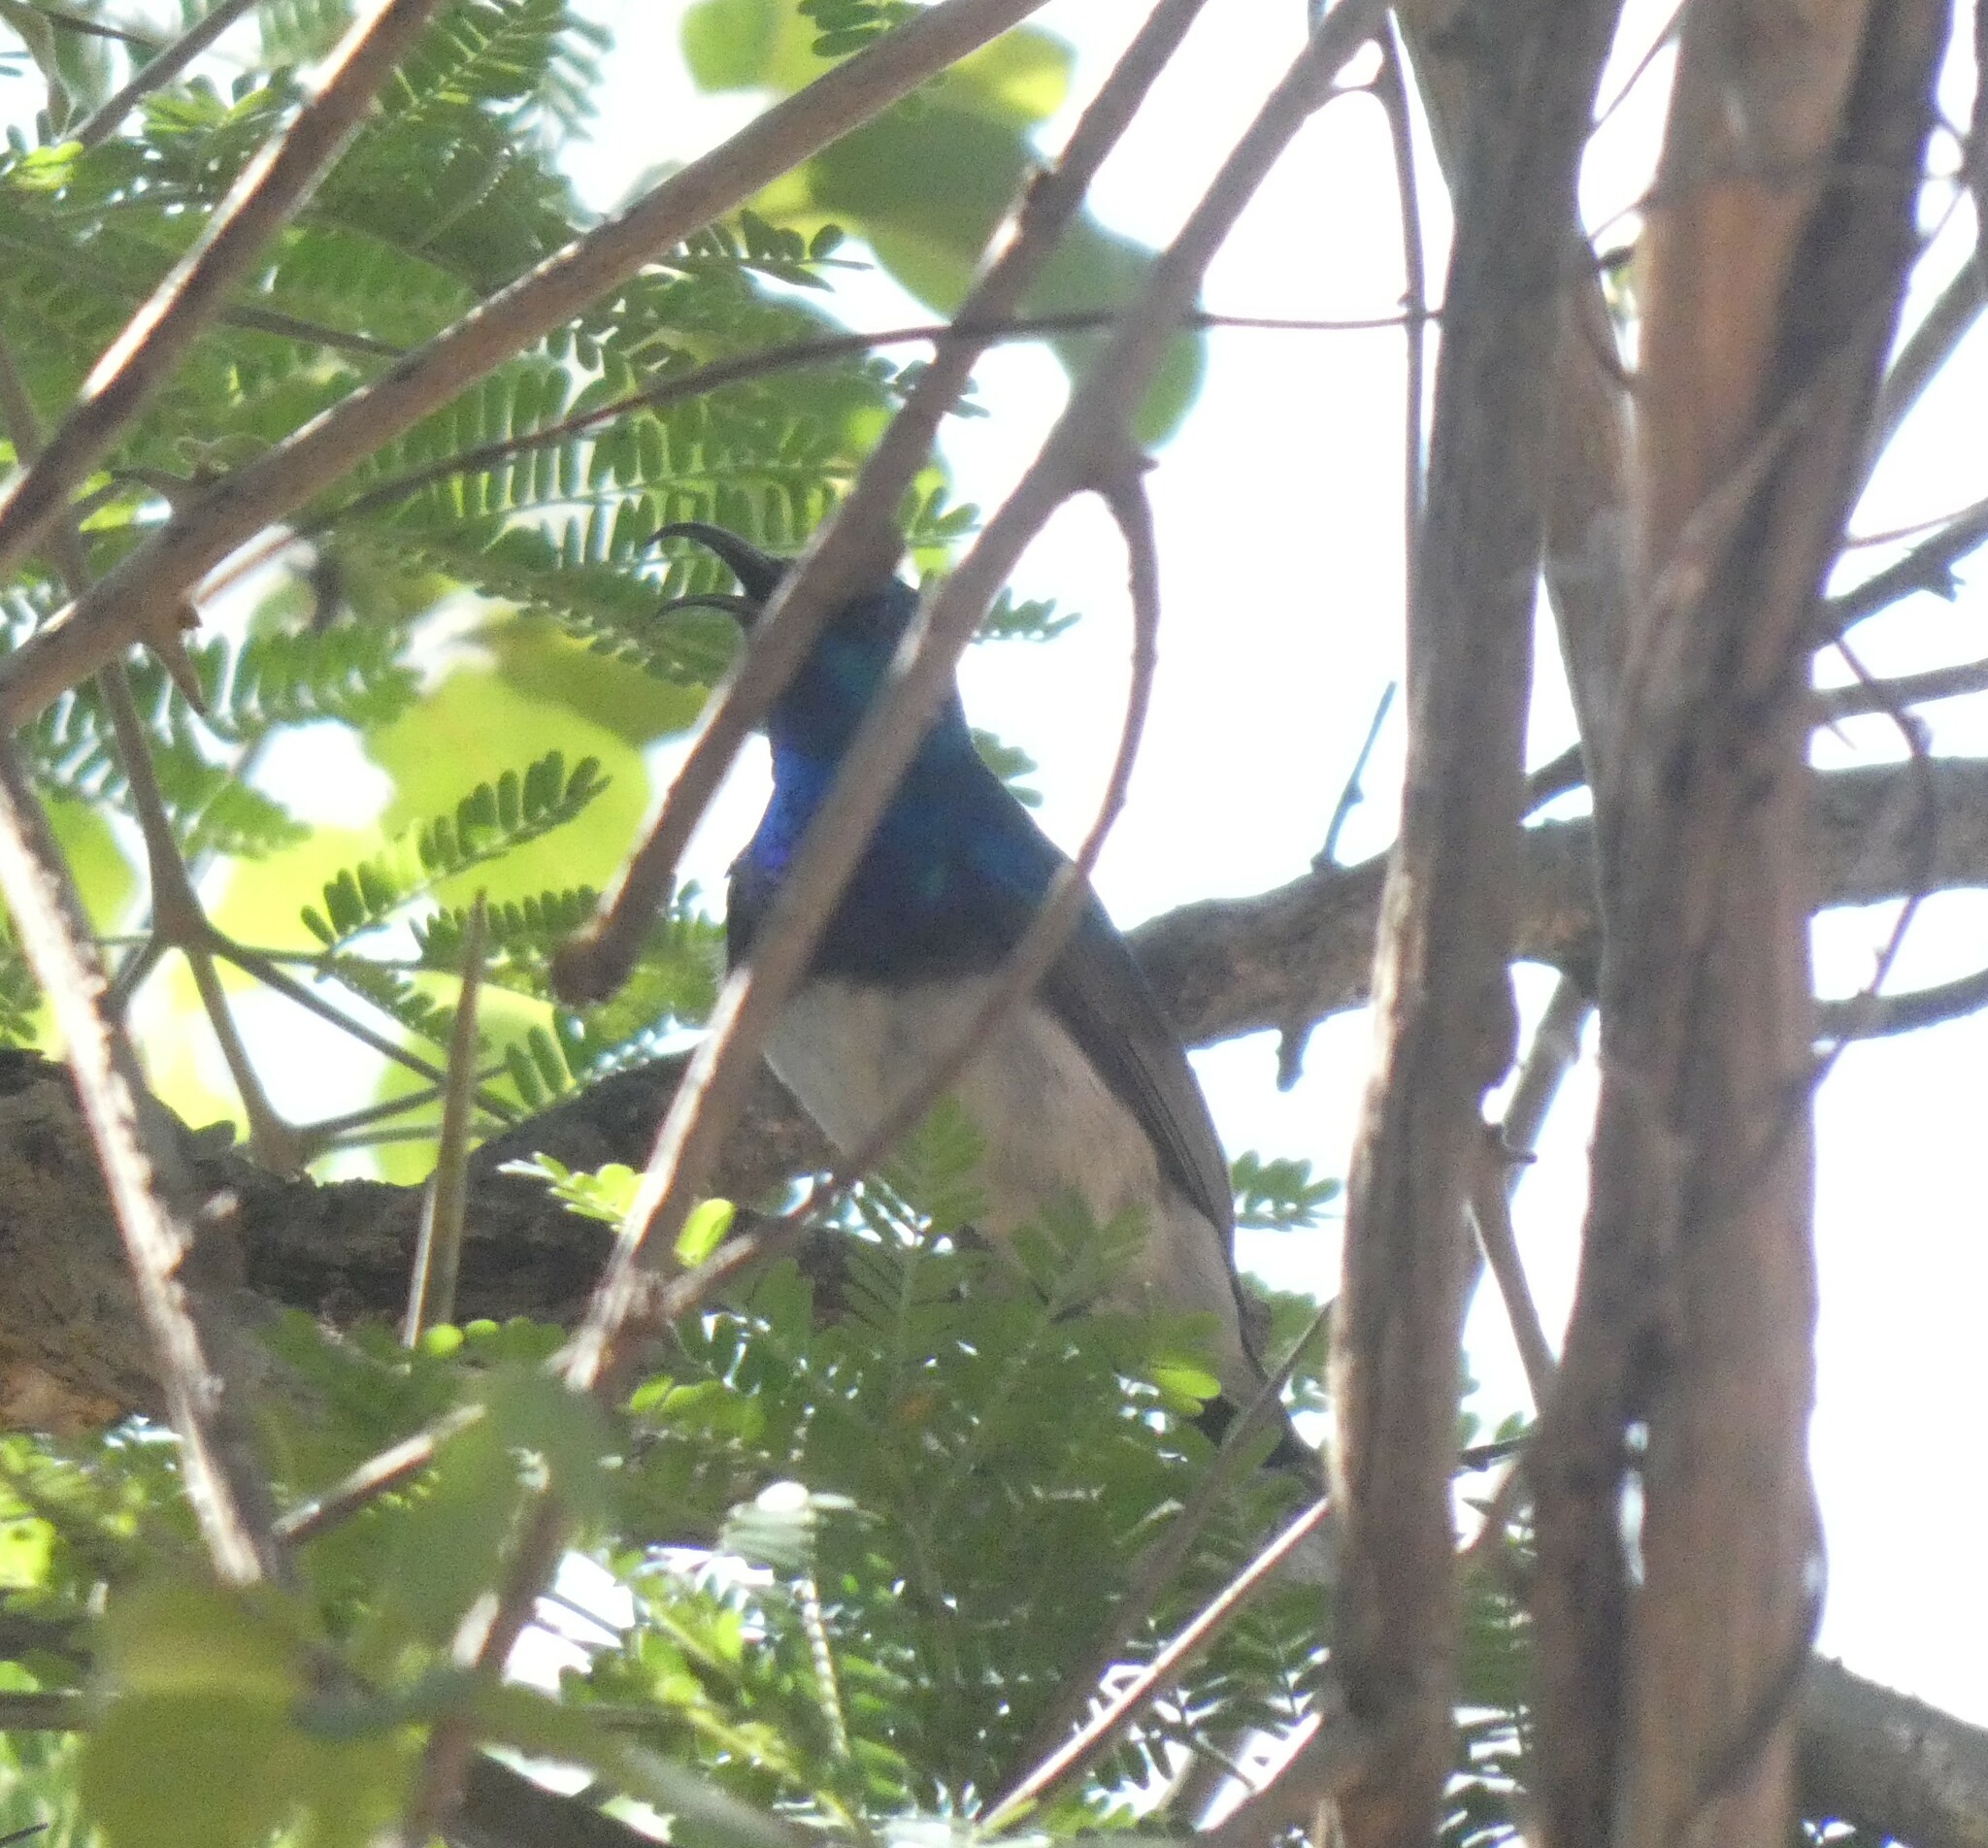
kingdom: Animalia
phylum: Chordata
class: Aves
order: Passeriformes
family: Nectariniidae
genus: Cinnyris
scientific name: Cinnyris talatala
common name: White-bellied sunbird
